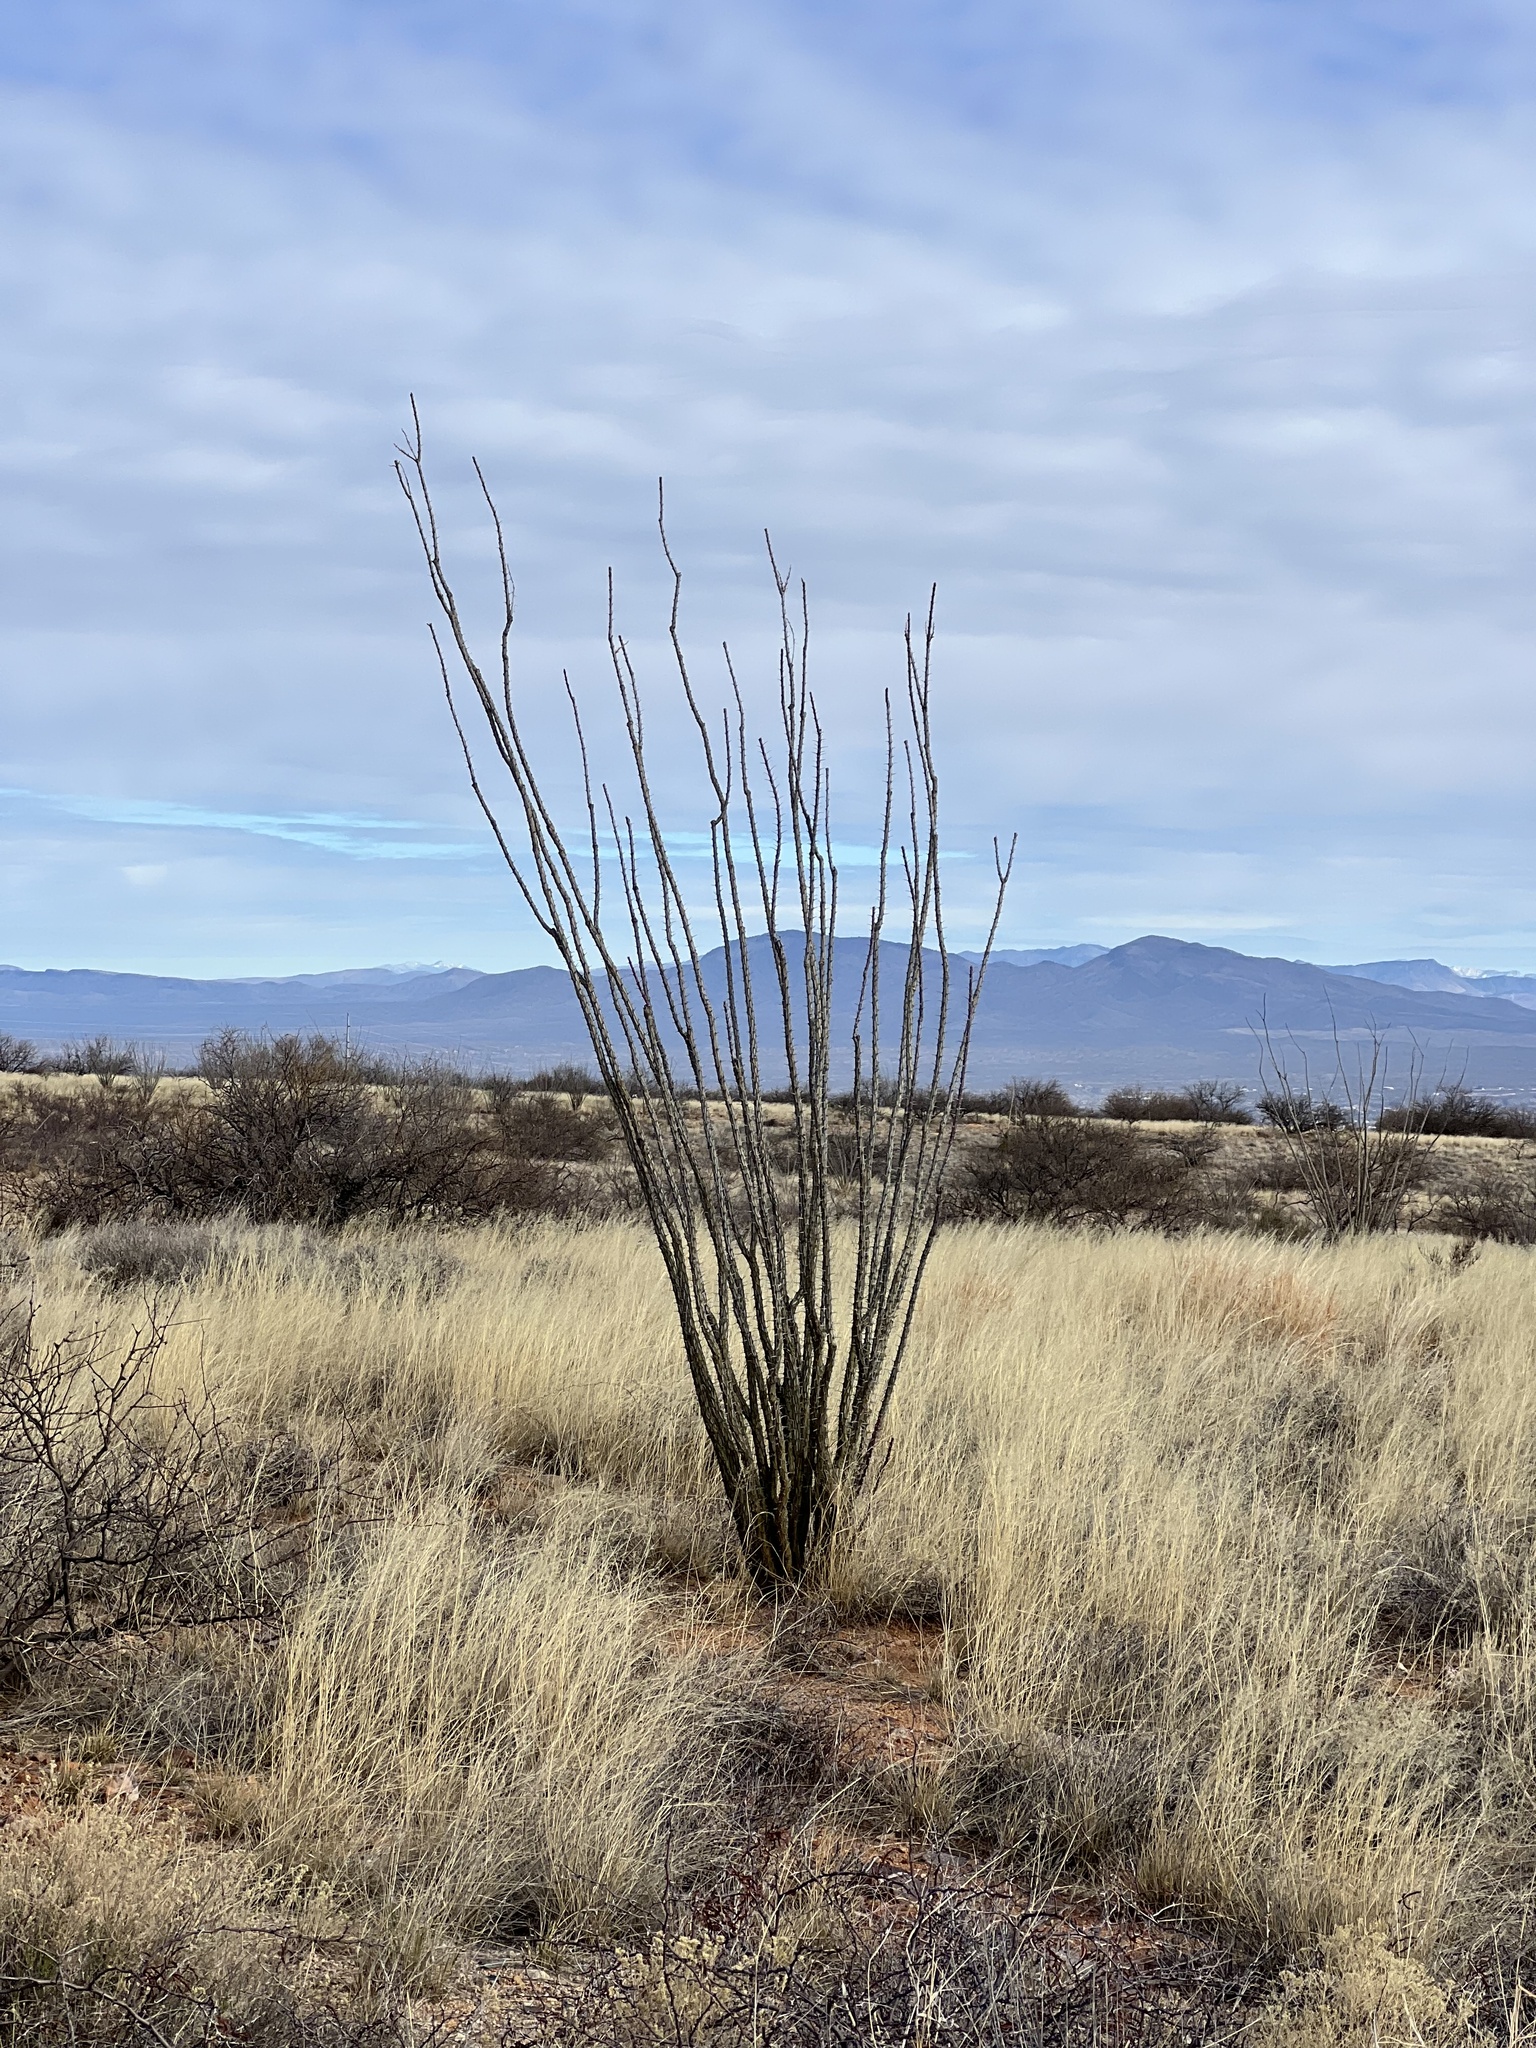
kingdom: Plantae
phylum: Tracheophyta
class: Magnoliopsida
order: Ericales
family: Fouquieriaceae
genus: Fouquieria
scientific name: Fouquieria splendens
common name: Vine-cactus
